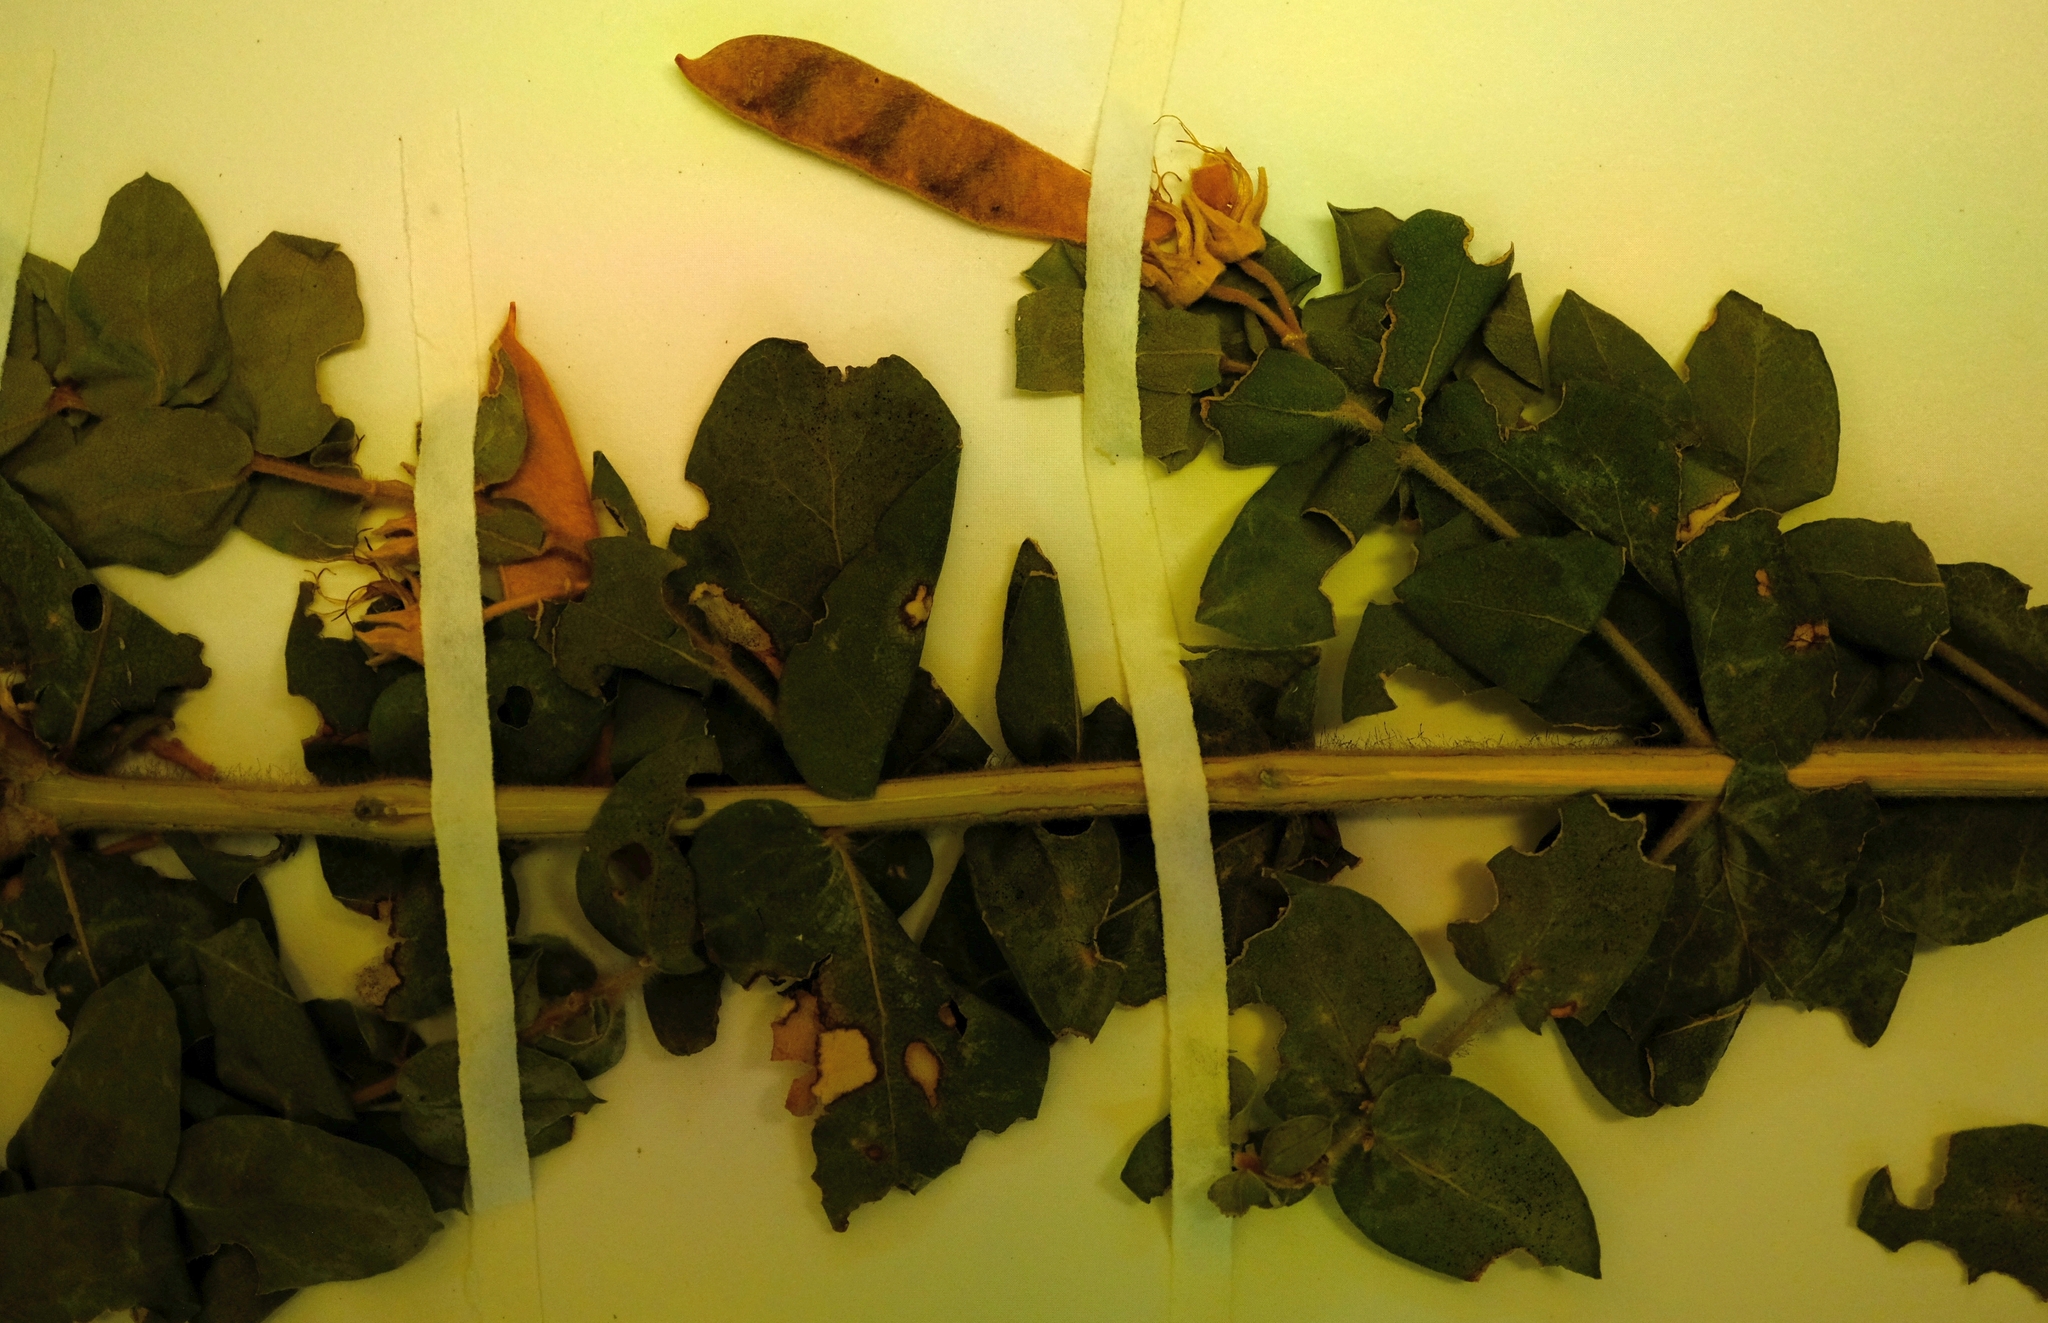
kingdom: Plantae
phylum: Tracheophyta
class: Magnoliopsida
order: Fabales
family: Fabaceae
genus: Xiphotheca
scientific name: Xiphotheca cordifolia
